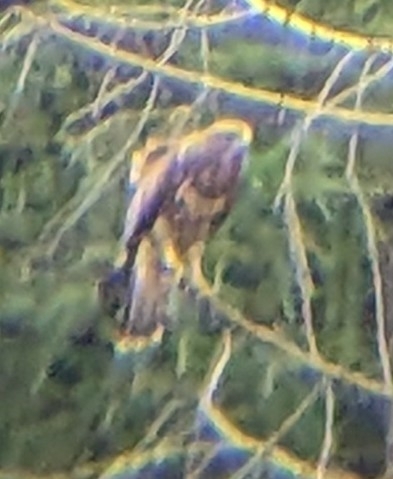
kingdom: Animalia
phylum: Chordata
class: Aves
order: Accipitriformes
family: Accipitridae
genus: Buteo
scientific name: Buteo buteo
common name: Common buzzard
